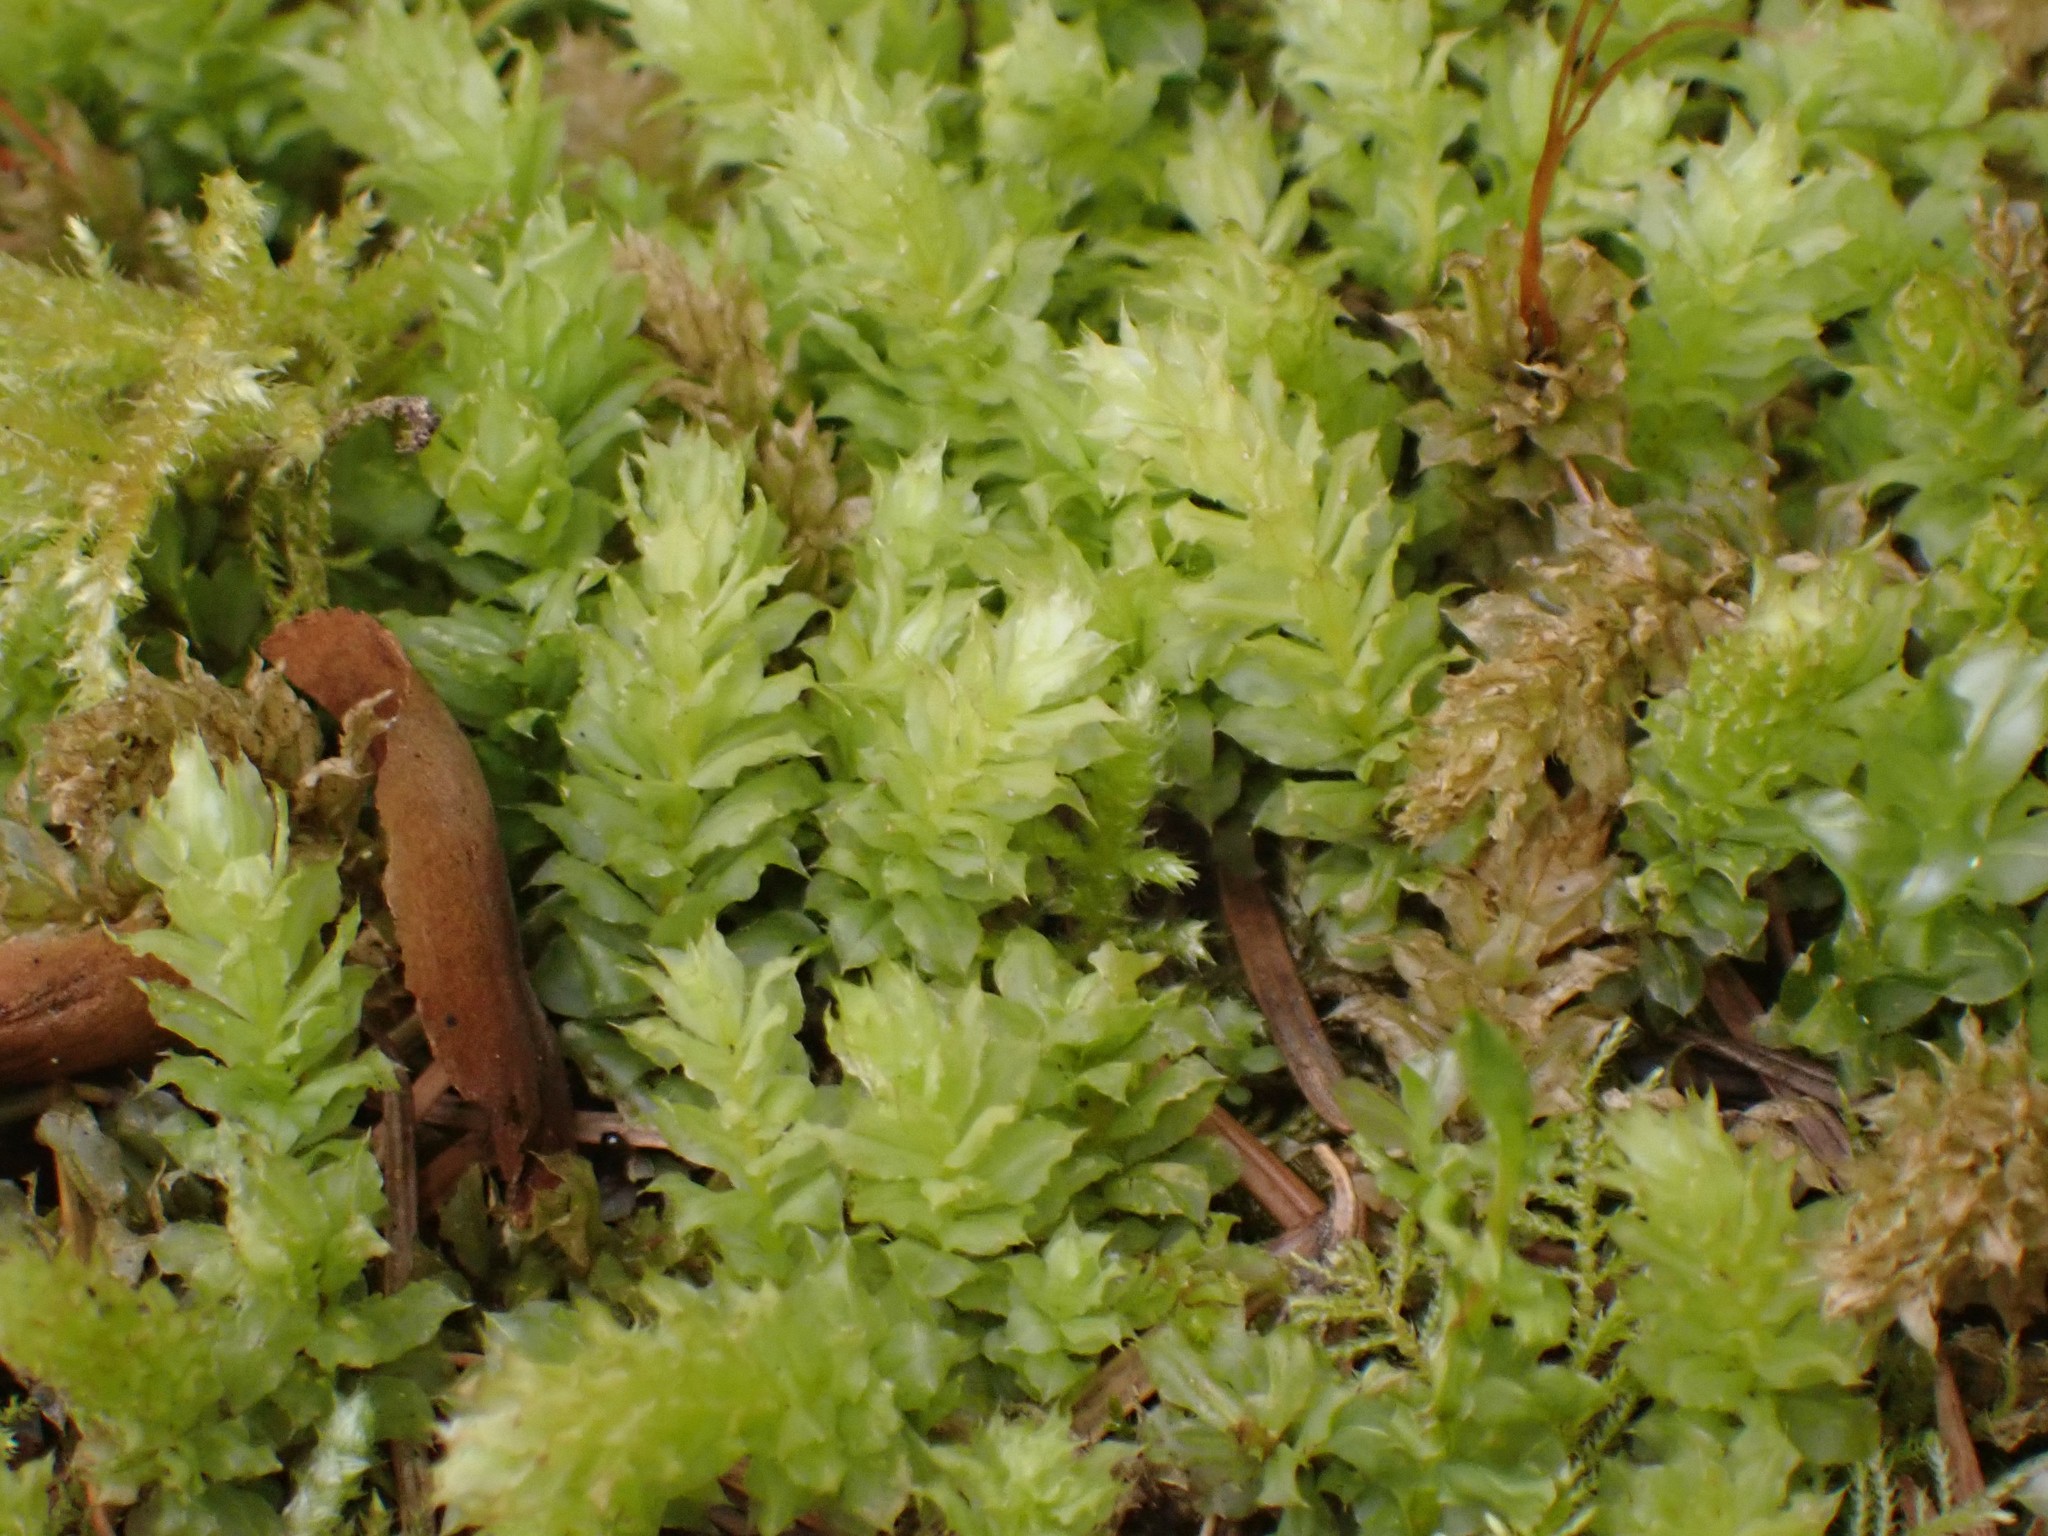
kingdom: Plantae
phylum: Bryophyta
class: Bryopsida
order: Bryales
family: Mniaceae
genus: Plagiomnium
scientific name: Plagiomnium insigne
